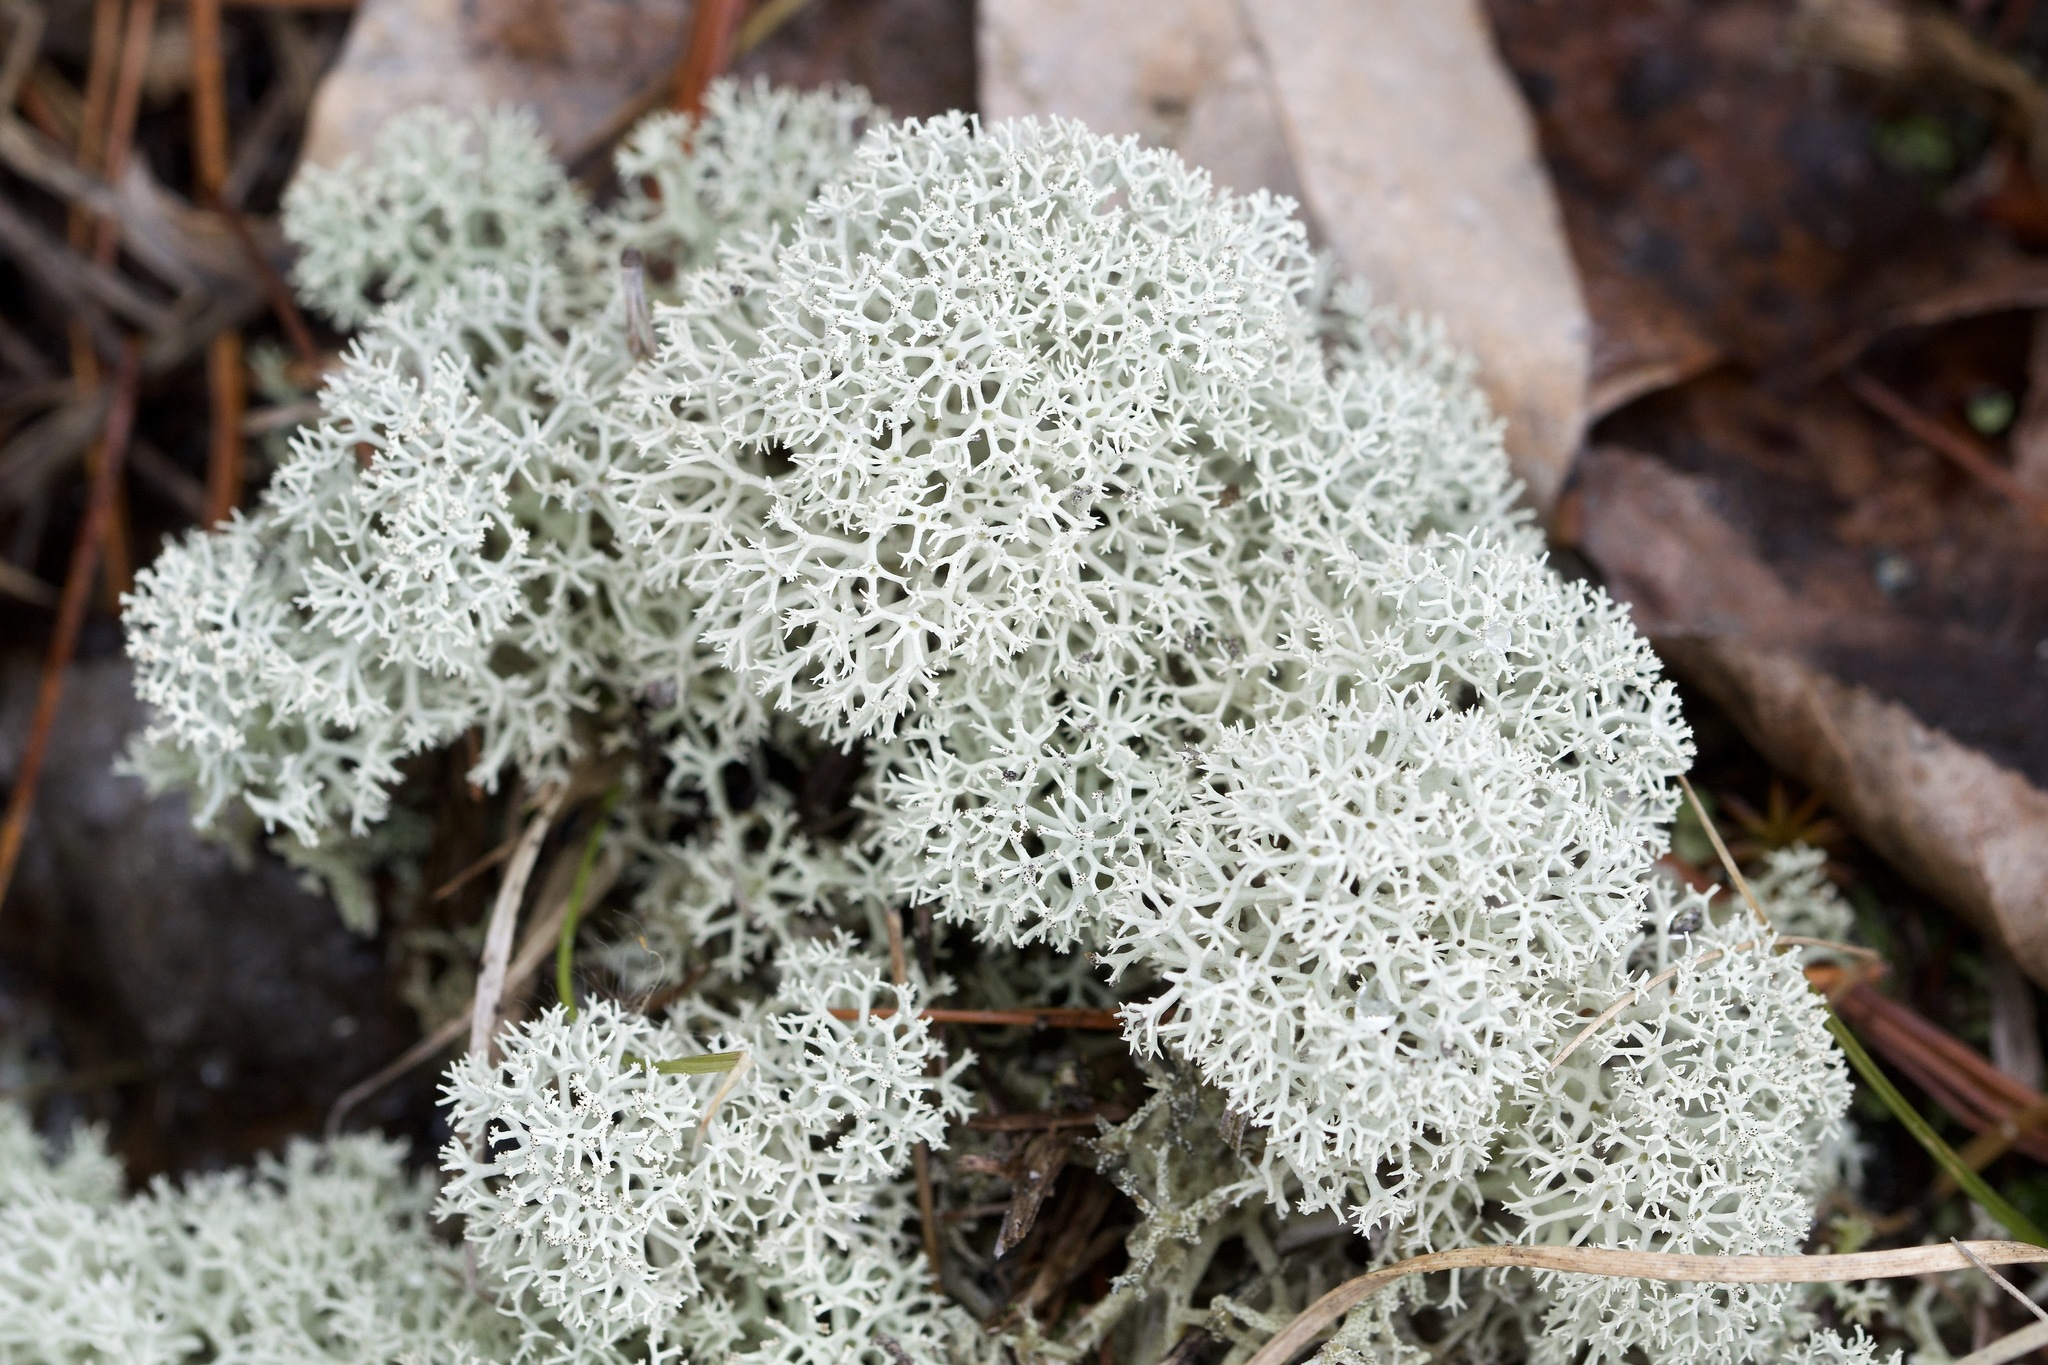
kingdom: Fungi
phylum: Ascomycota
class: Lecanoromycetes
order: Lecanorales
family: Cladoniaceae
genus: Cladonia
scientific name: Cladonia stellaris
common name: Star-tipped reindeer lichen
